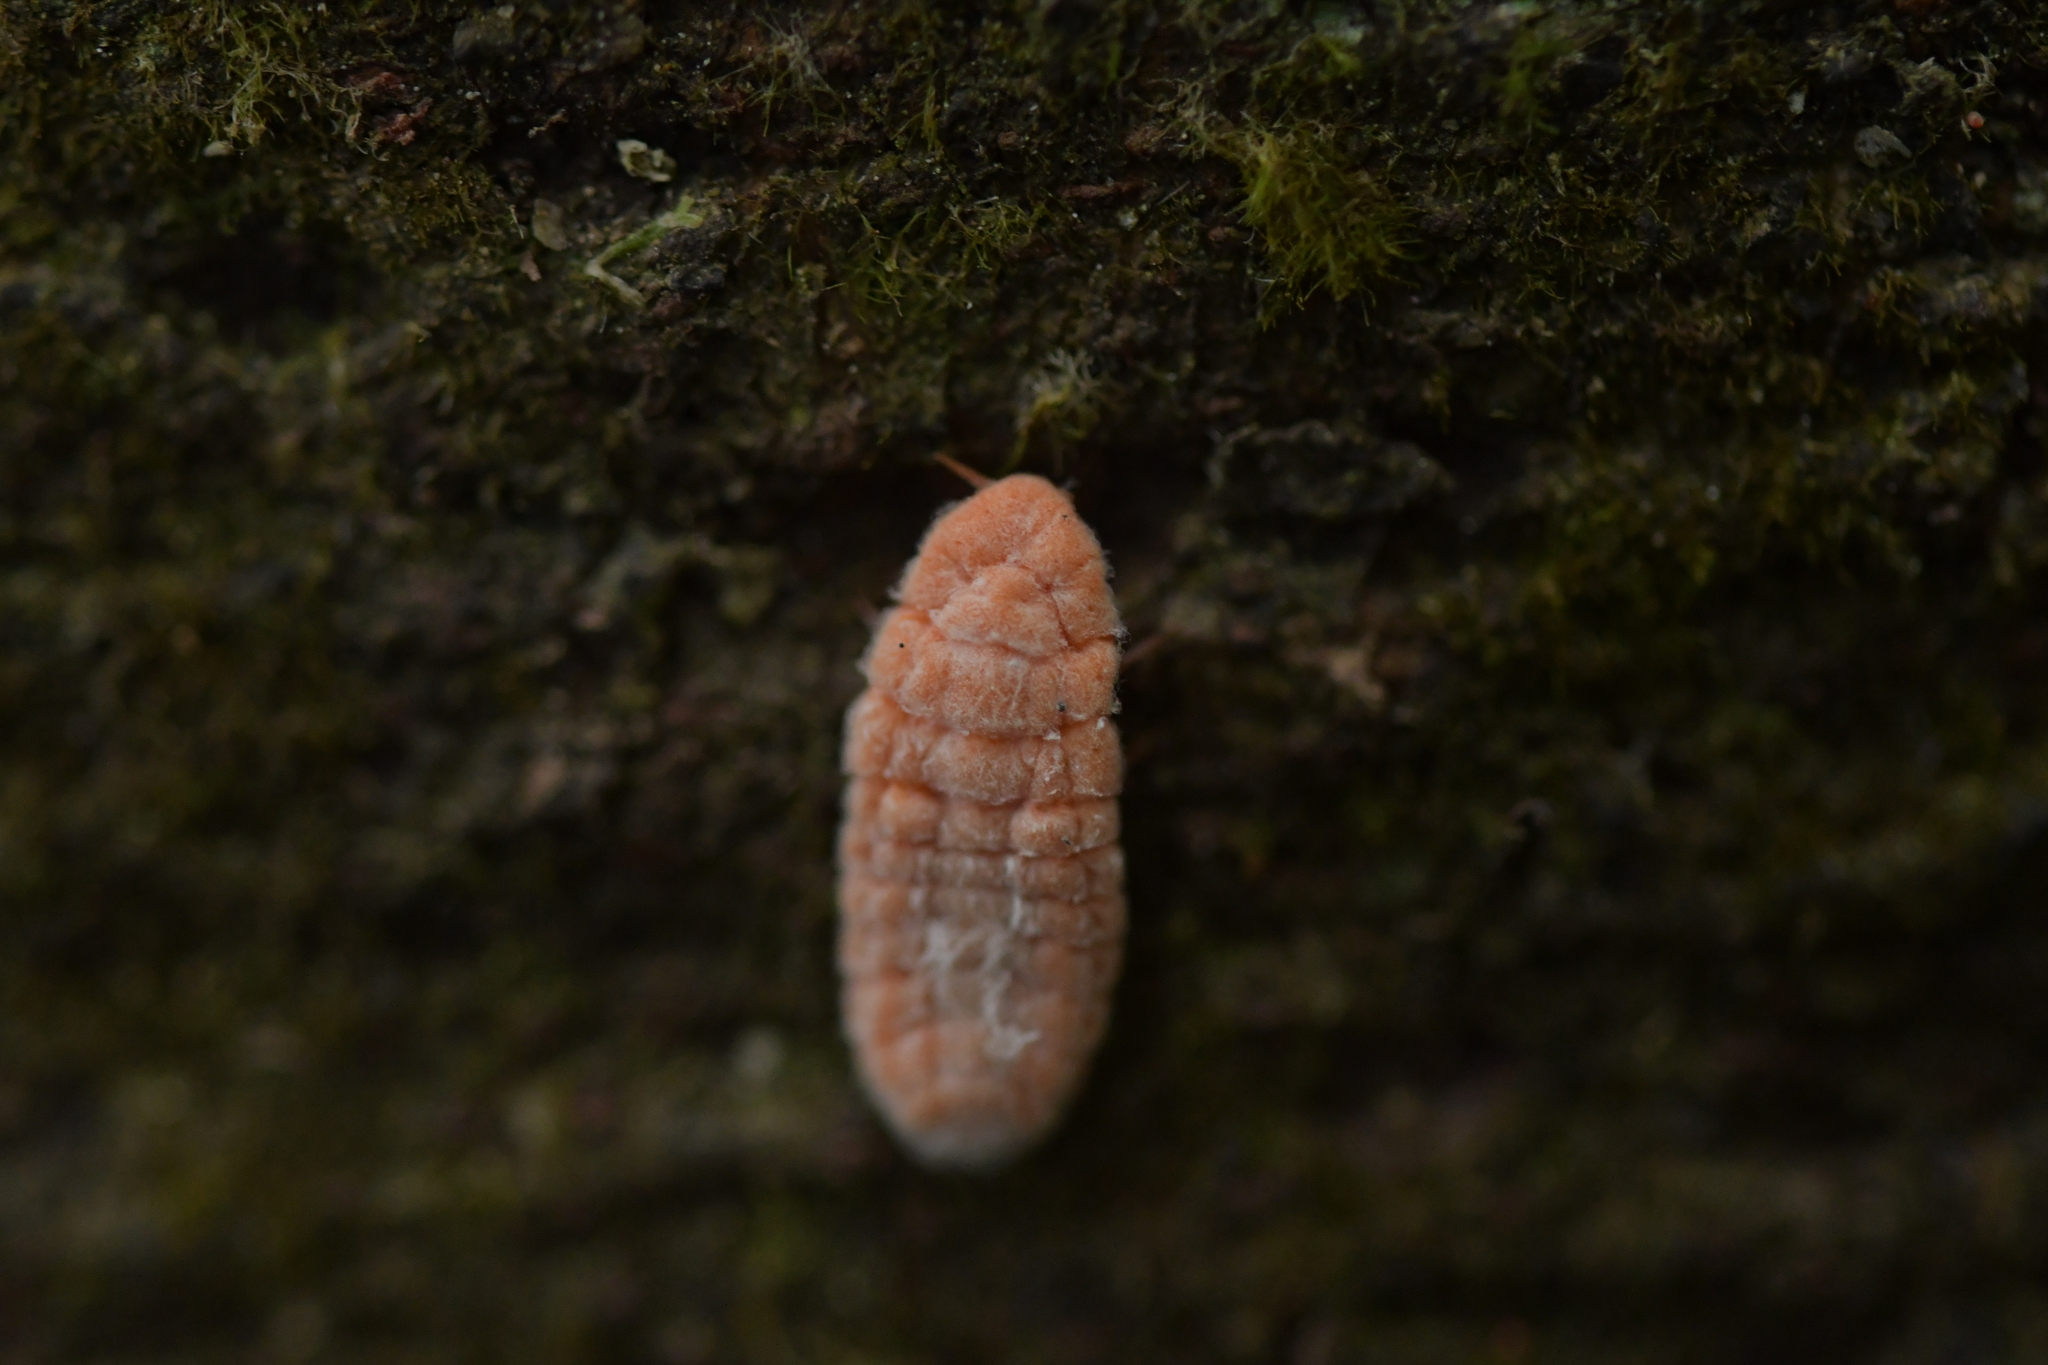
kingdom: Animalia
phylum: Arthropoda
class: Insecta
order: Hemiptera
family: Margarodidae
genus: Coelostomidia
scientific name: Coelostomidia zealandica
